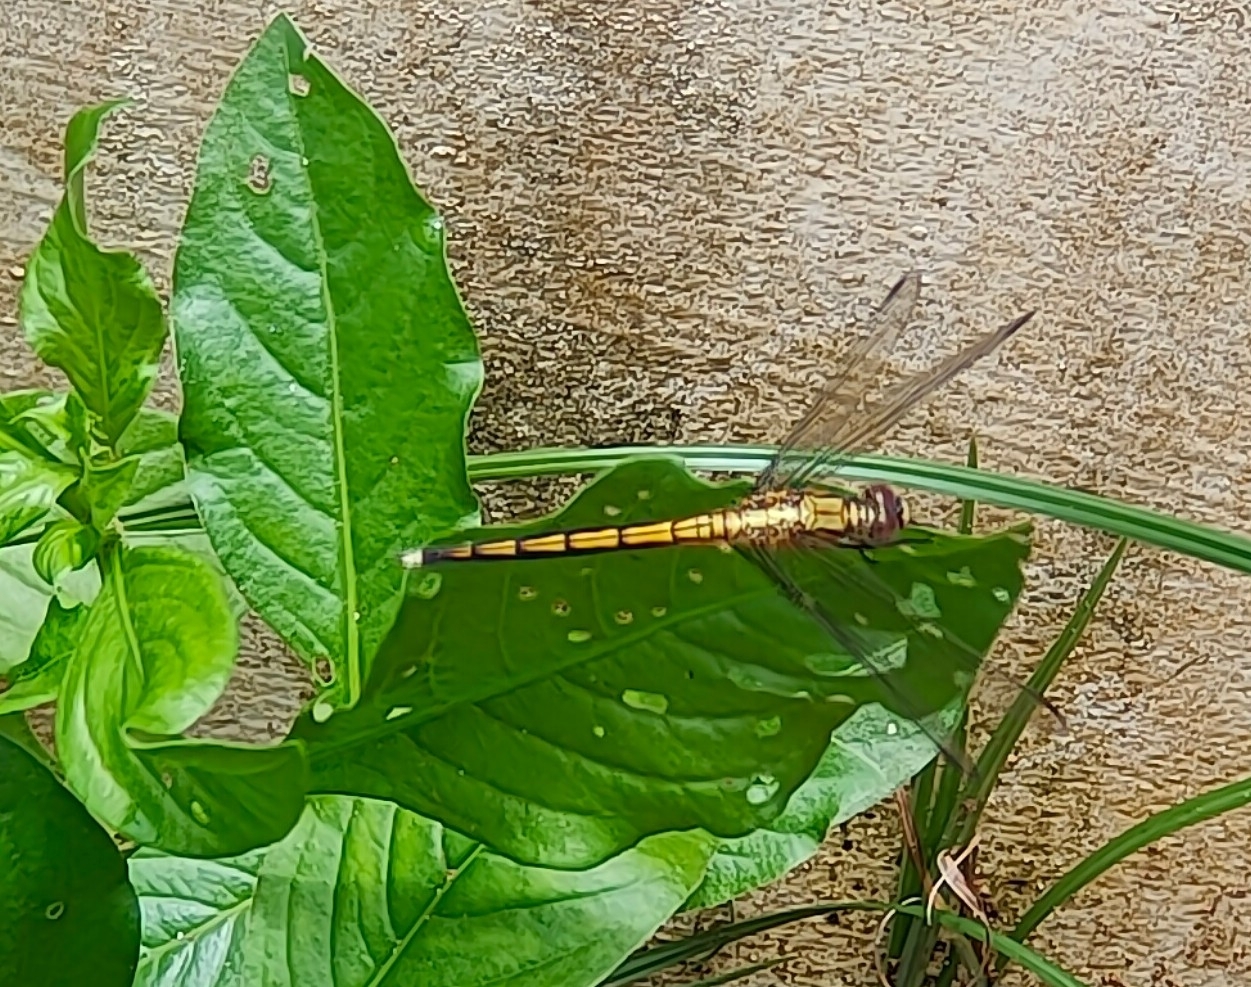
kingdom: Animalia
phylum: Arthropoda
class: Insecta
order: Odonata
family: Libellulidae
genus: Orthetrum
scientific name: Orthetrum luzonicum
